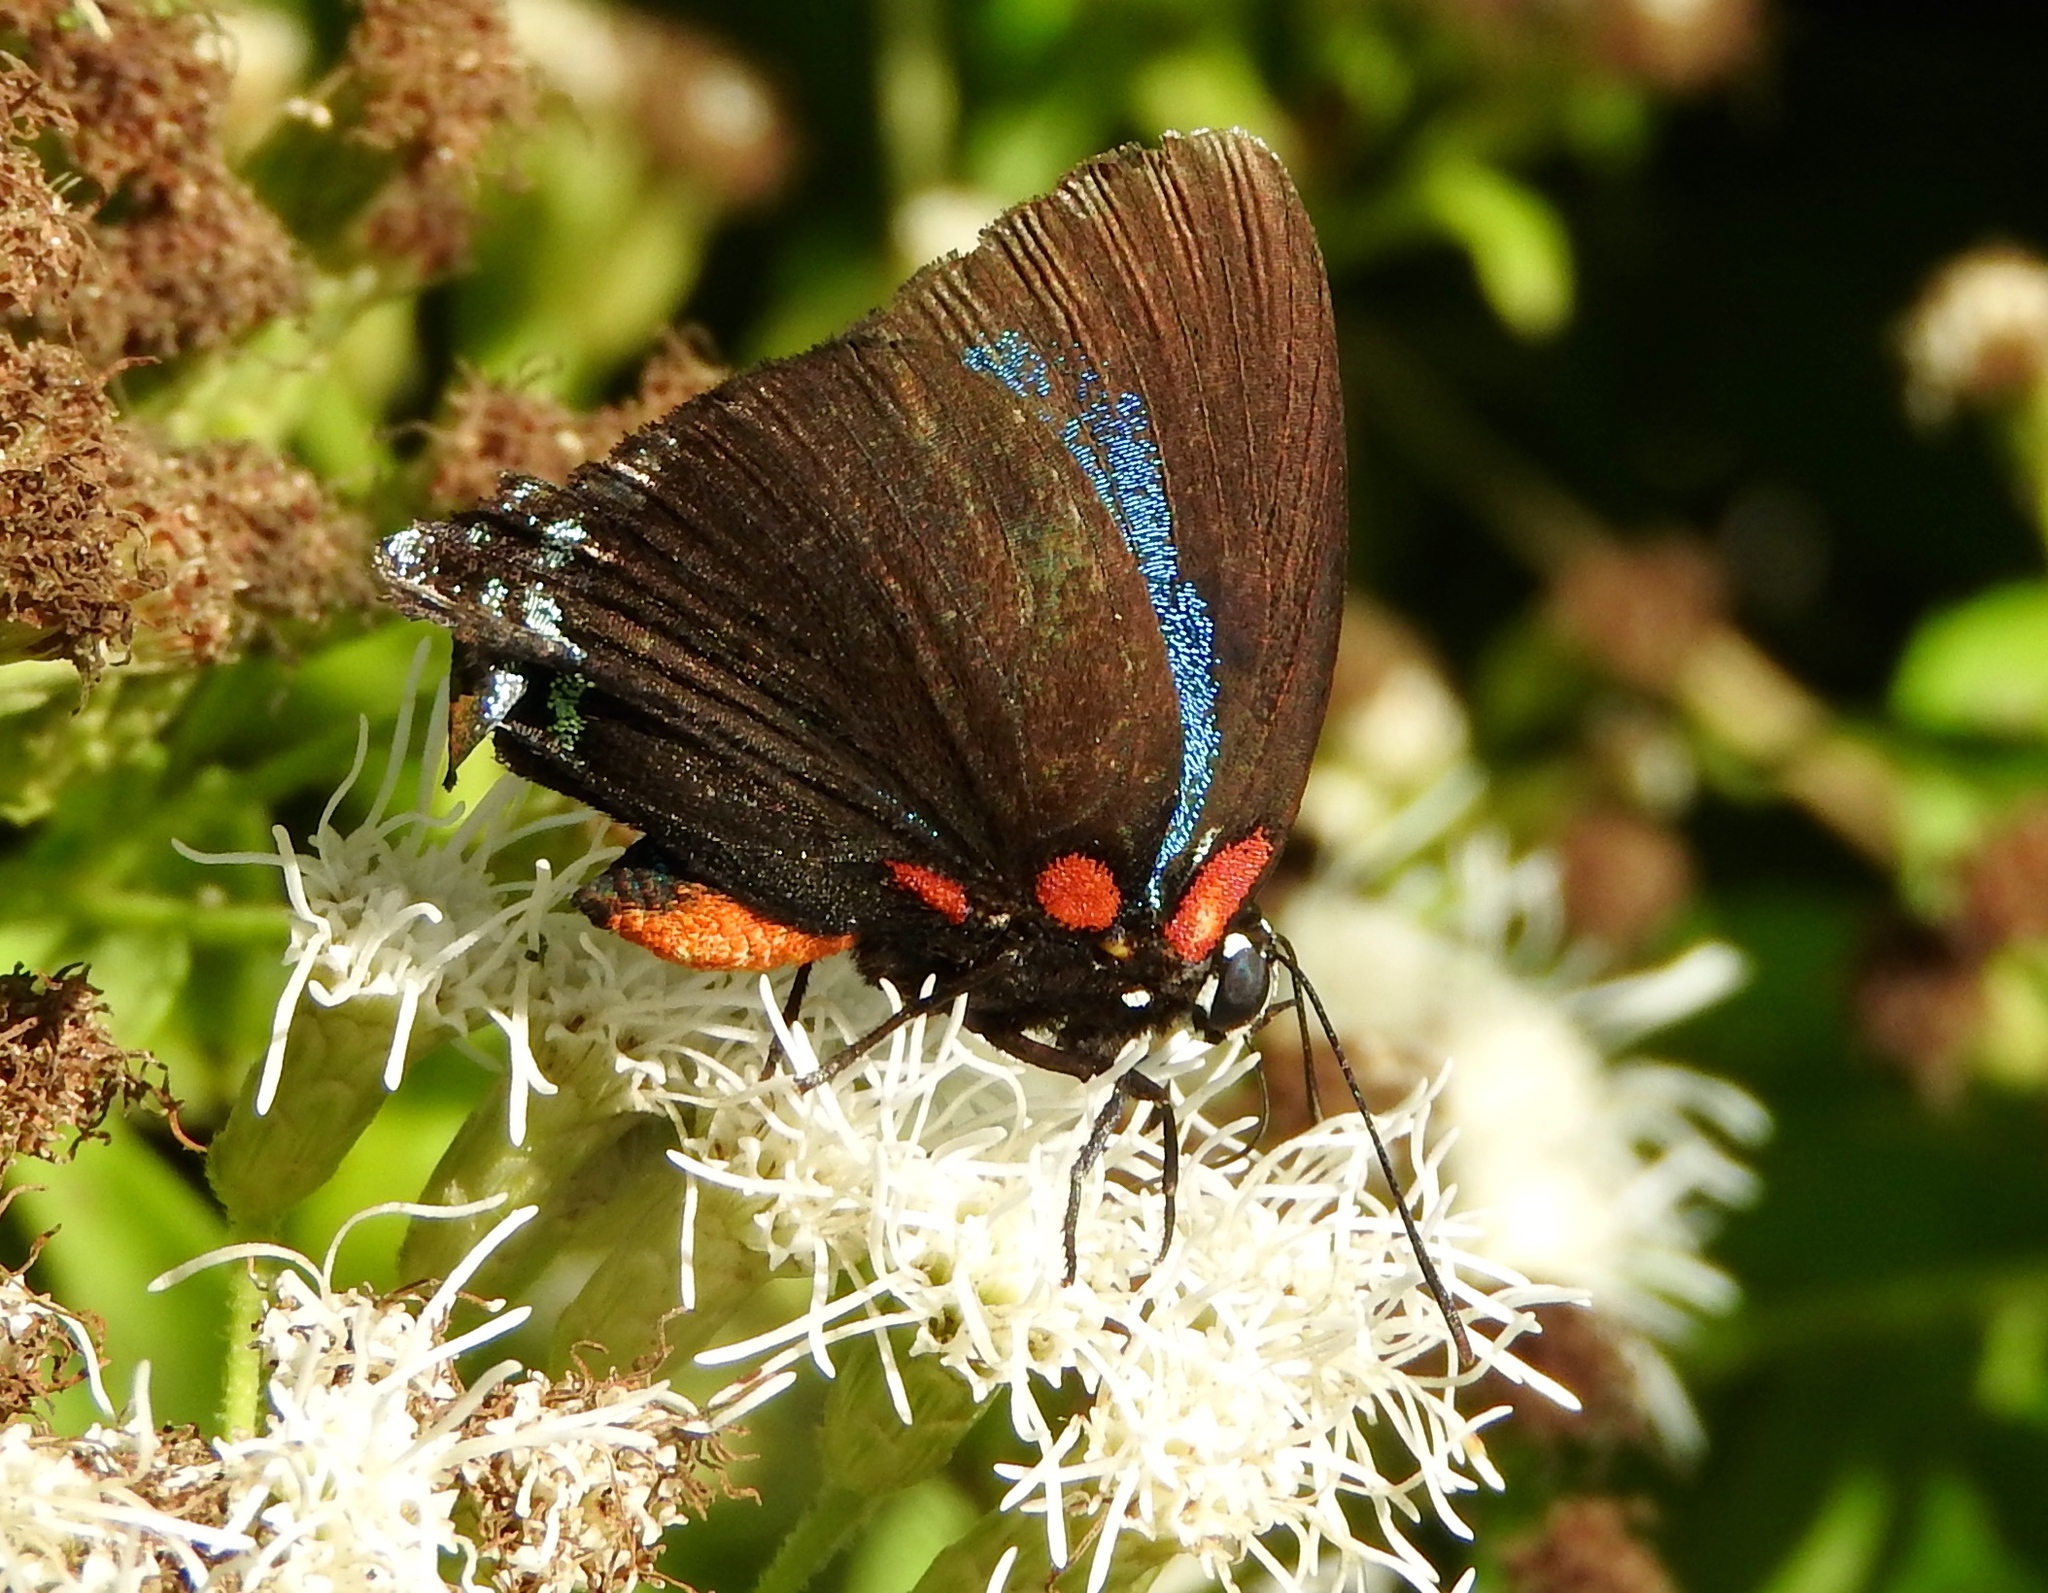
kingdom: Animalia
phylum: Arthropoda
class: Insecta
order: Lepidoptera
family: Lycaenidae
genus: Atlides
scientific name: Atlides
